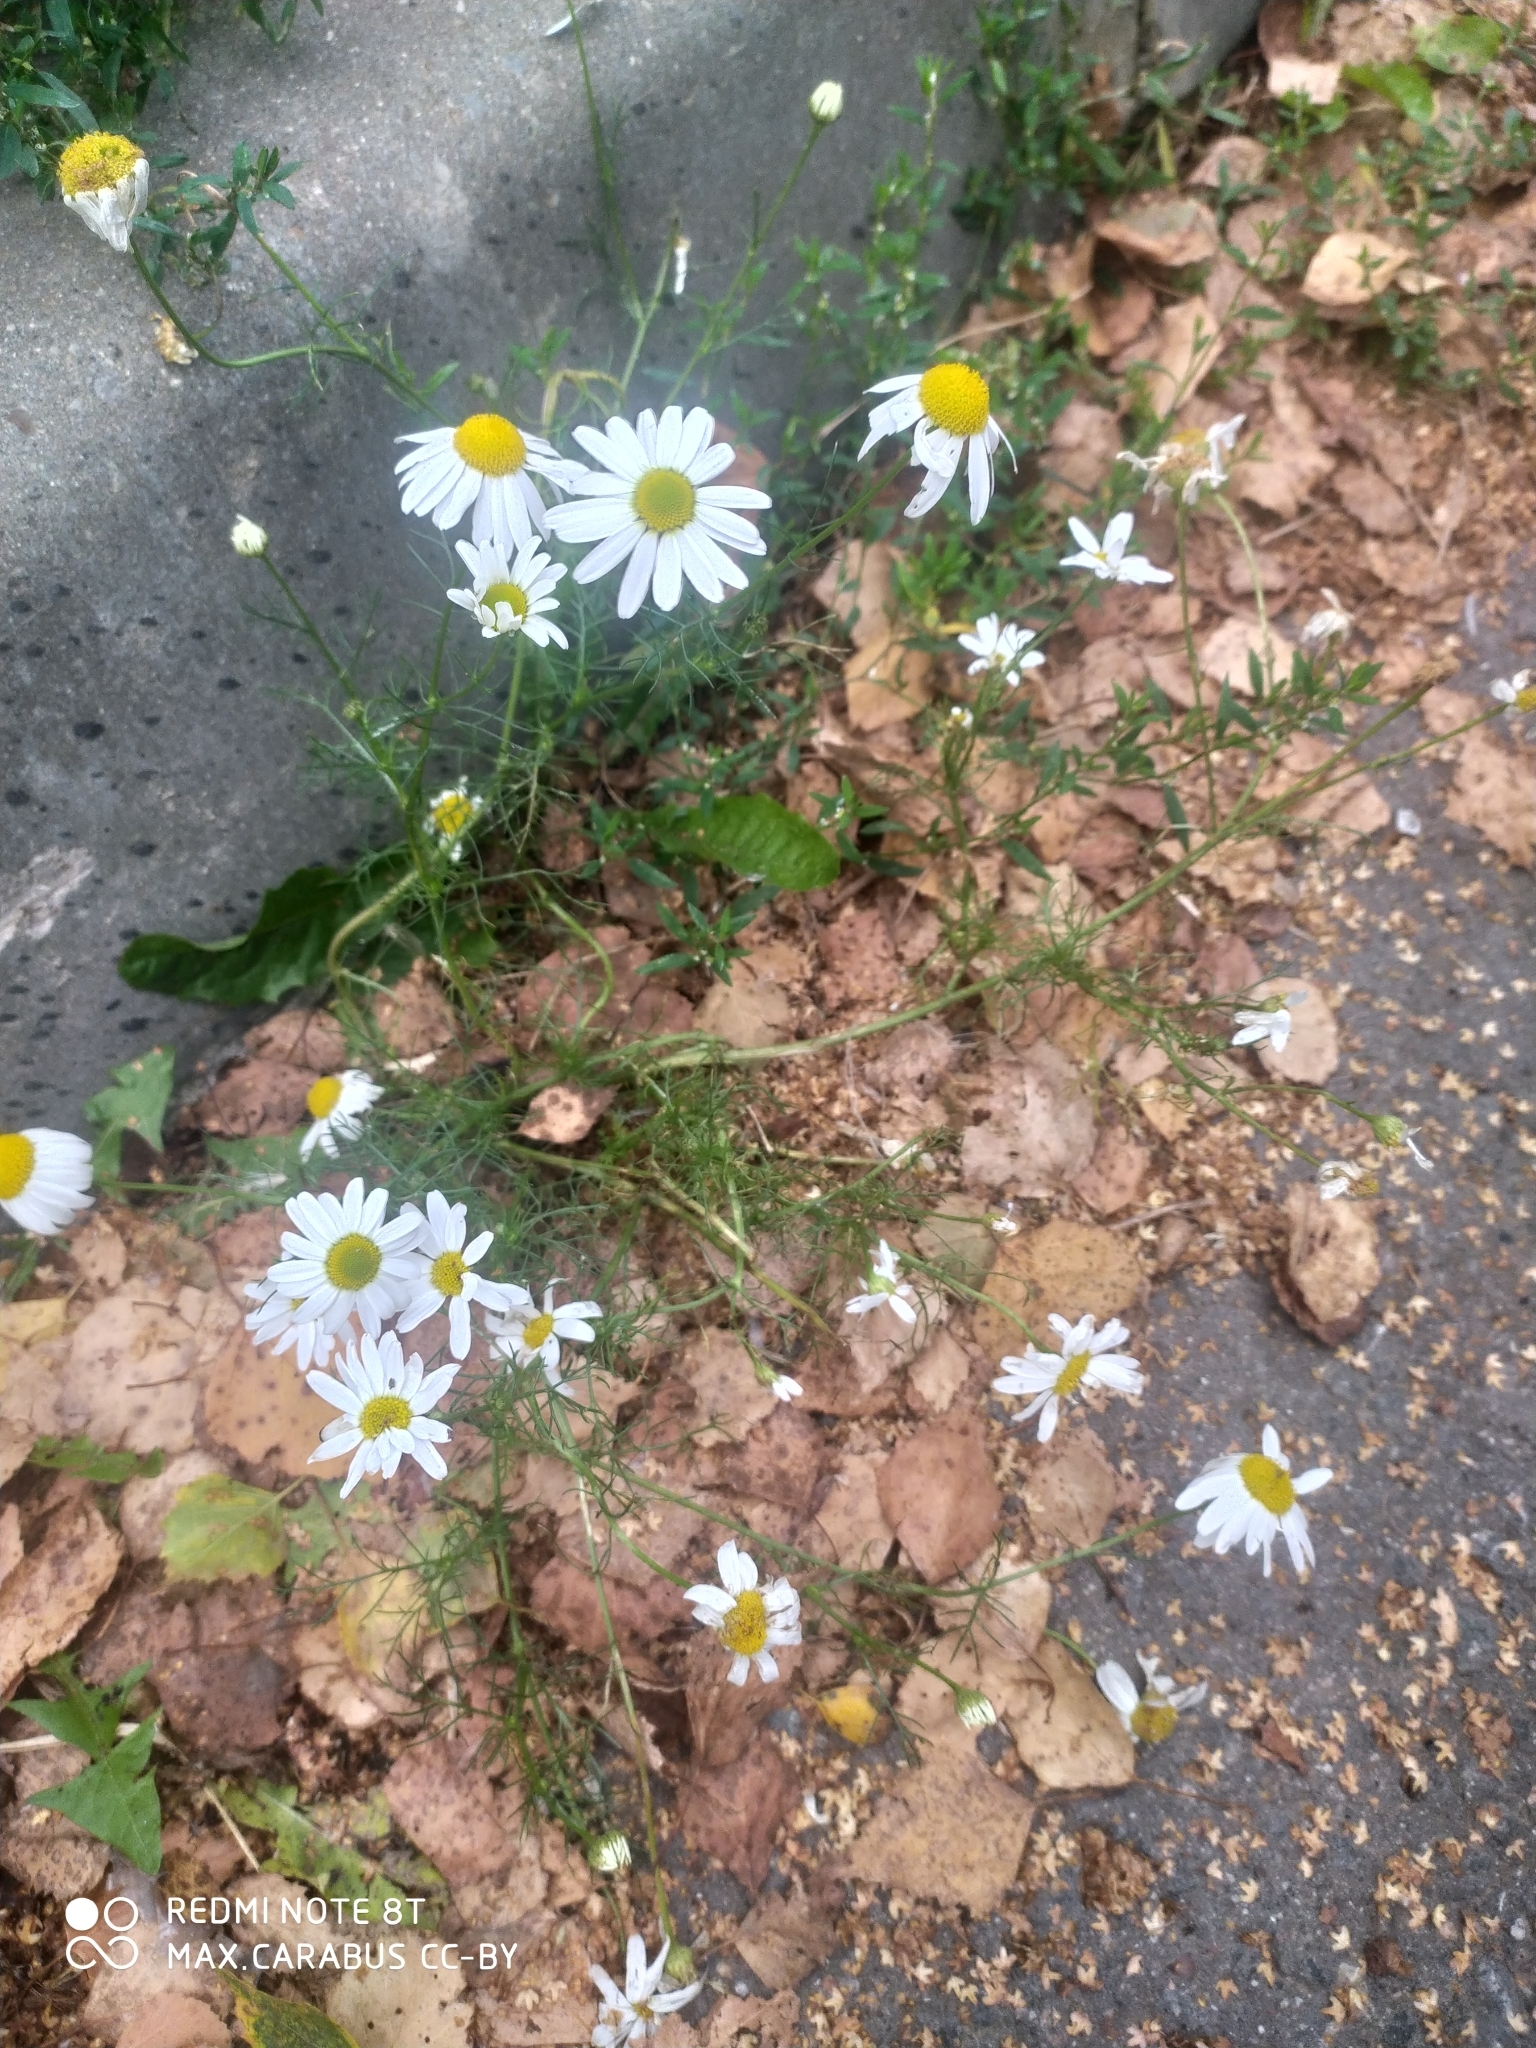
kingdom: Plantae
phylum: Tracheophyta
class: Magnoliopsida
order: Asterales
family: Asteraceae
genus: Tripleurospermum
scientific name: Tripleurospermum inodorum
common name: Scentless mayweed
